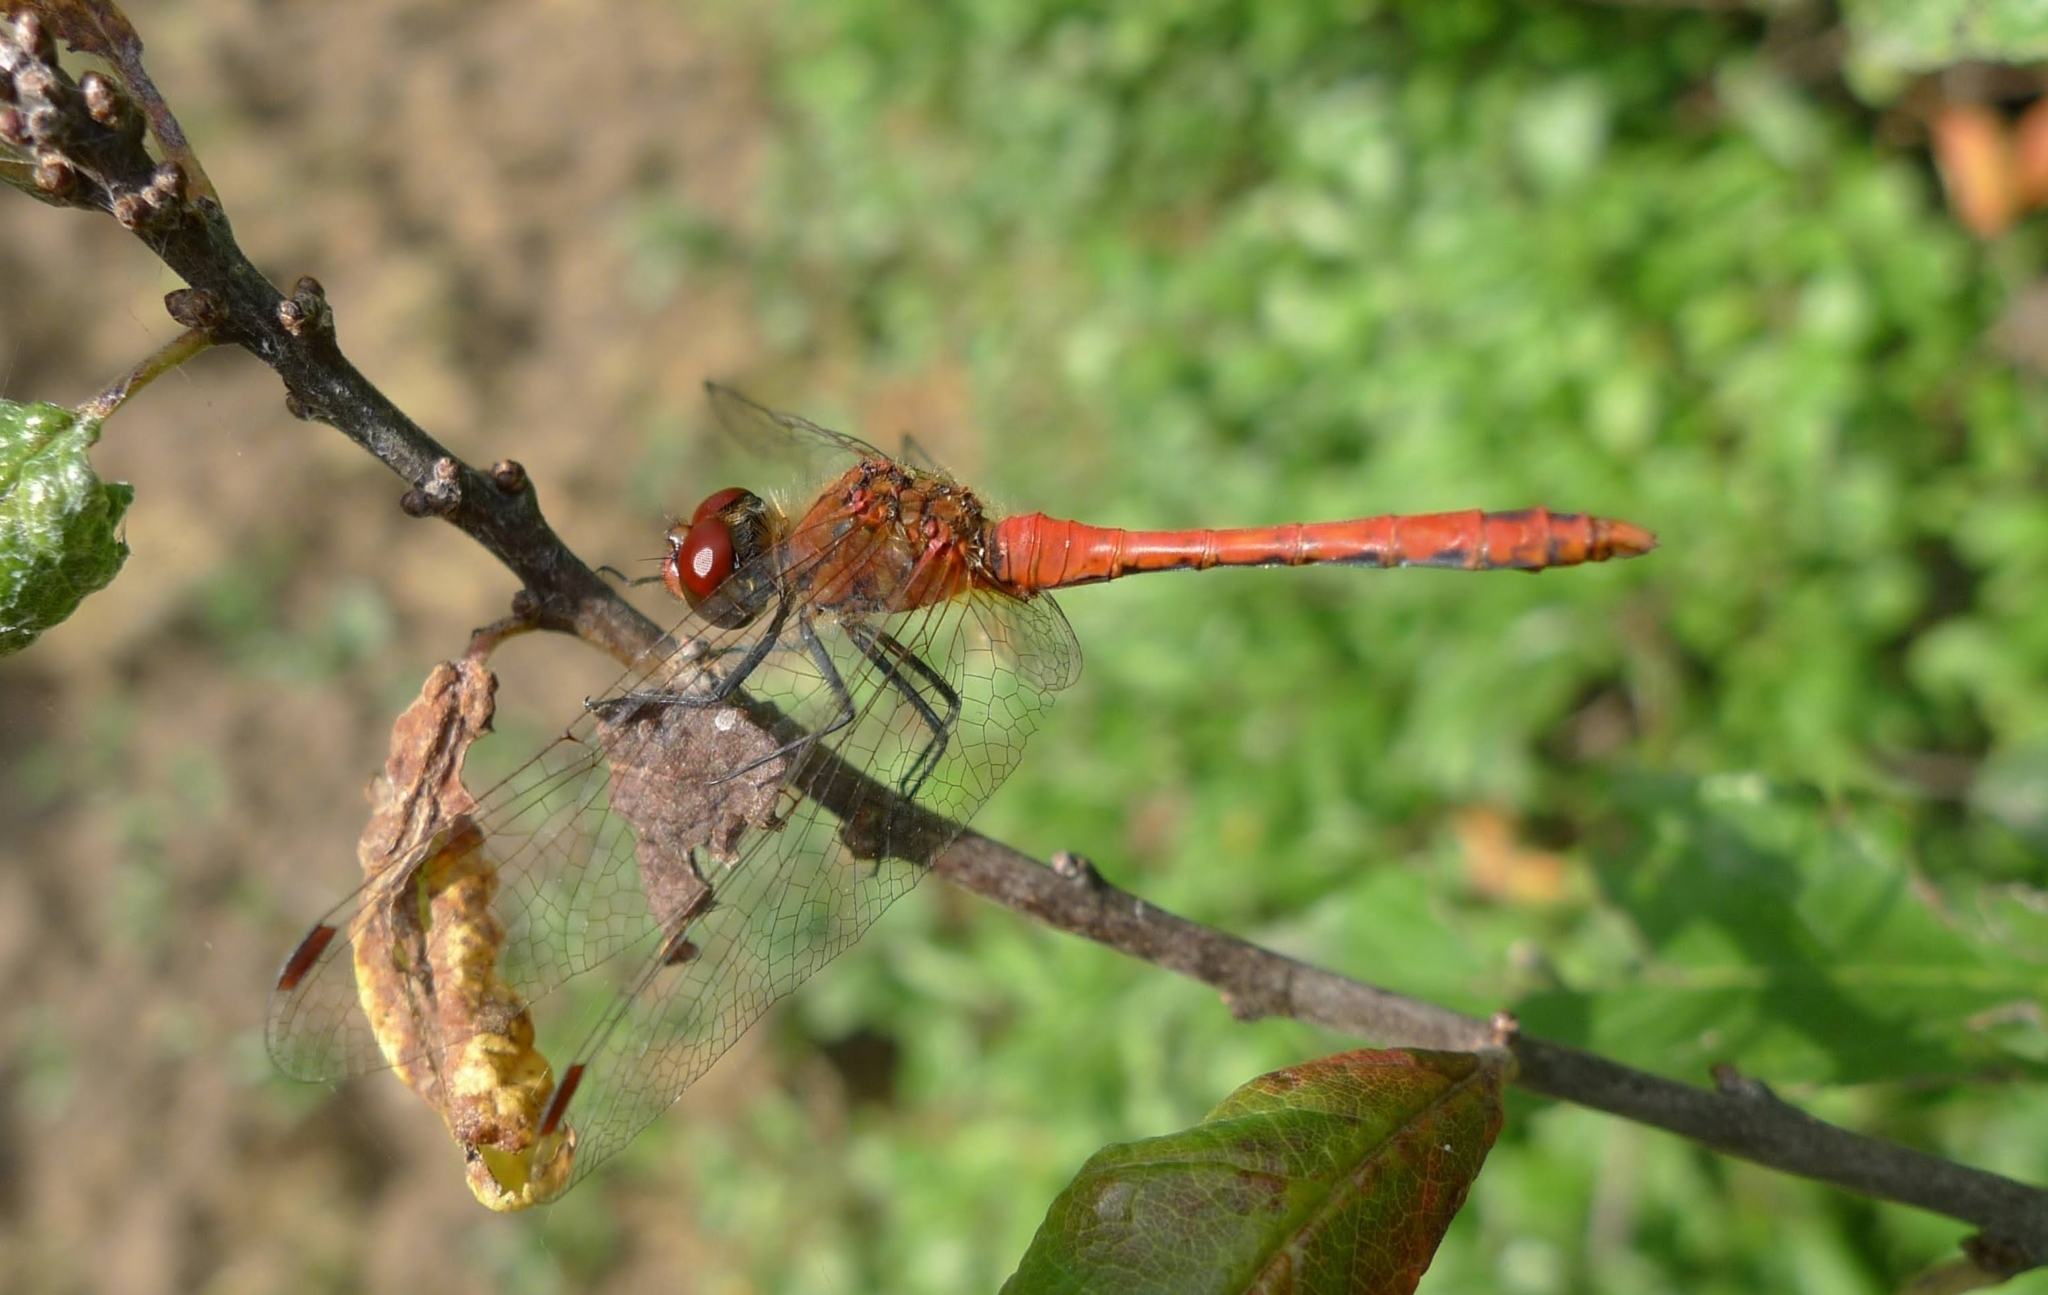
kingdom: Animalia
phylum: Arthropoda
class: Insecta
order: Odonata
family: Libellulidae
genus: Sympetrum
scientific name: Sympetrum sanguineum
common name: Ruddy darter
